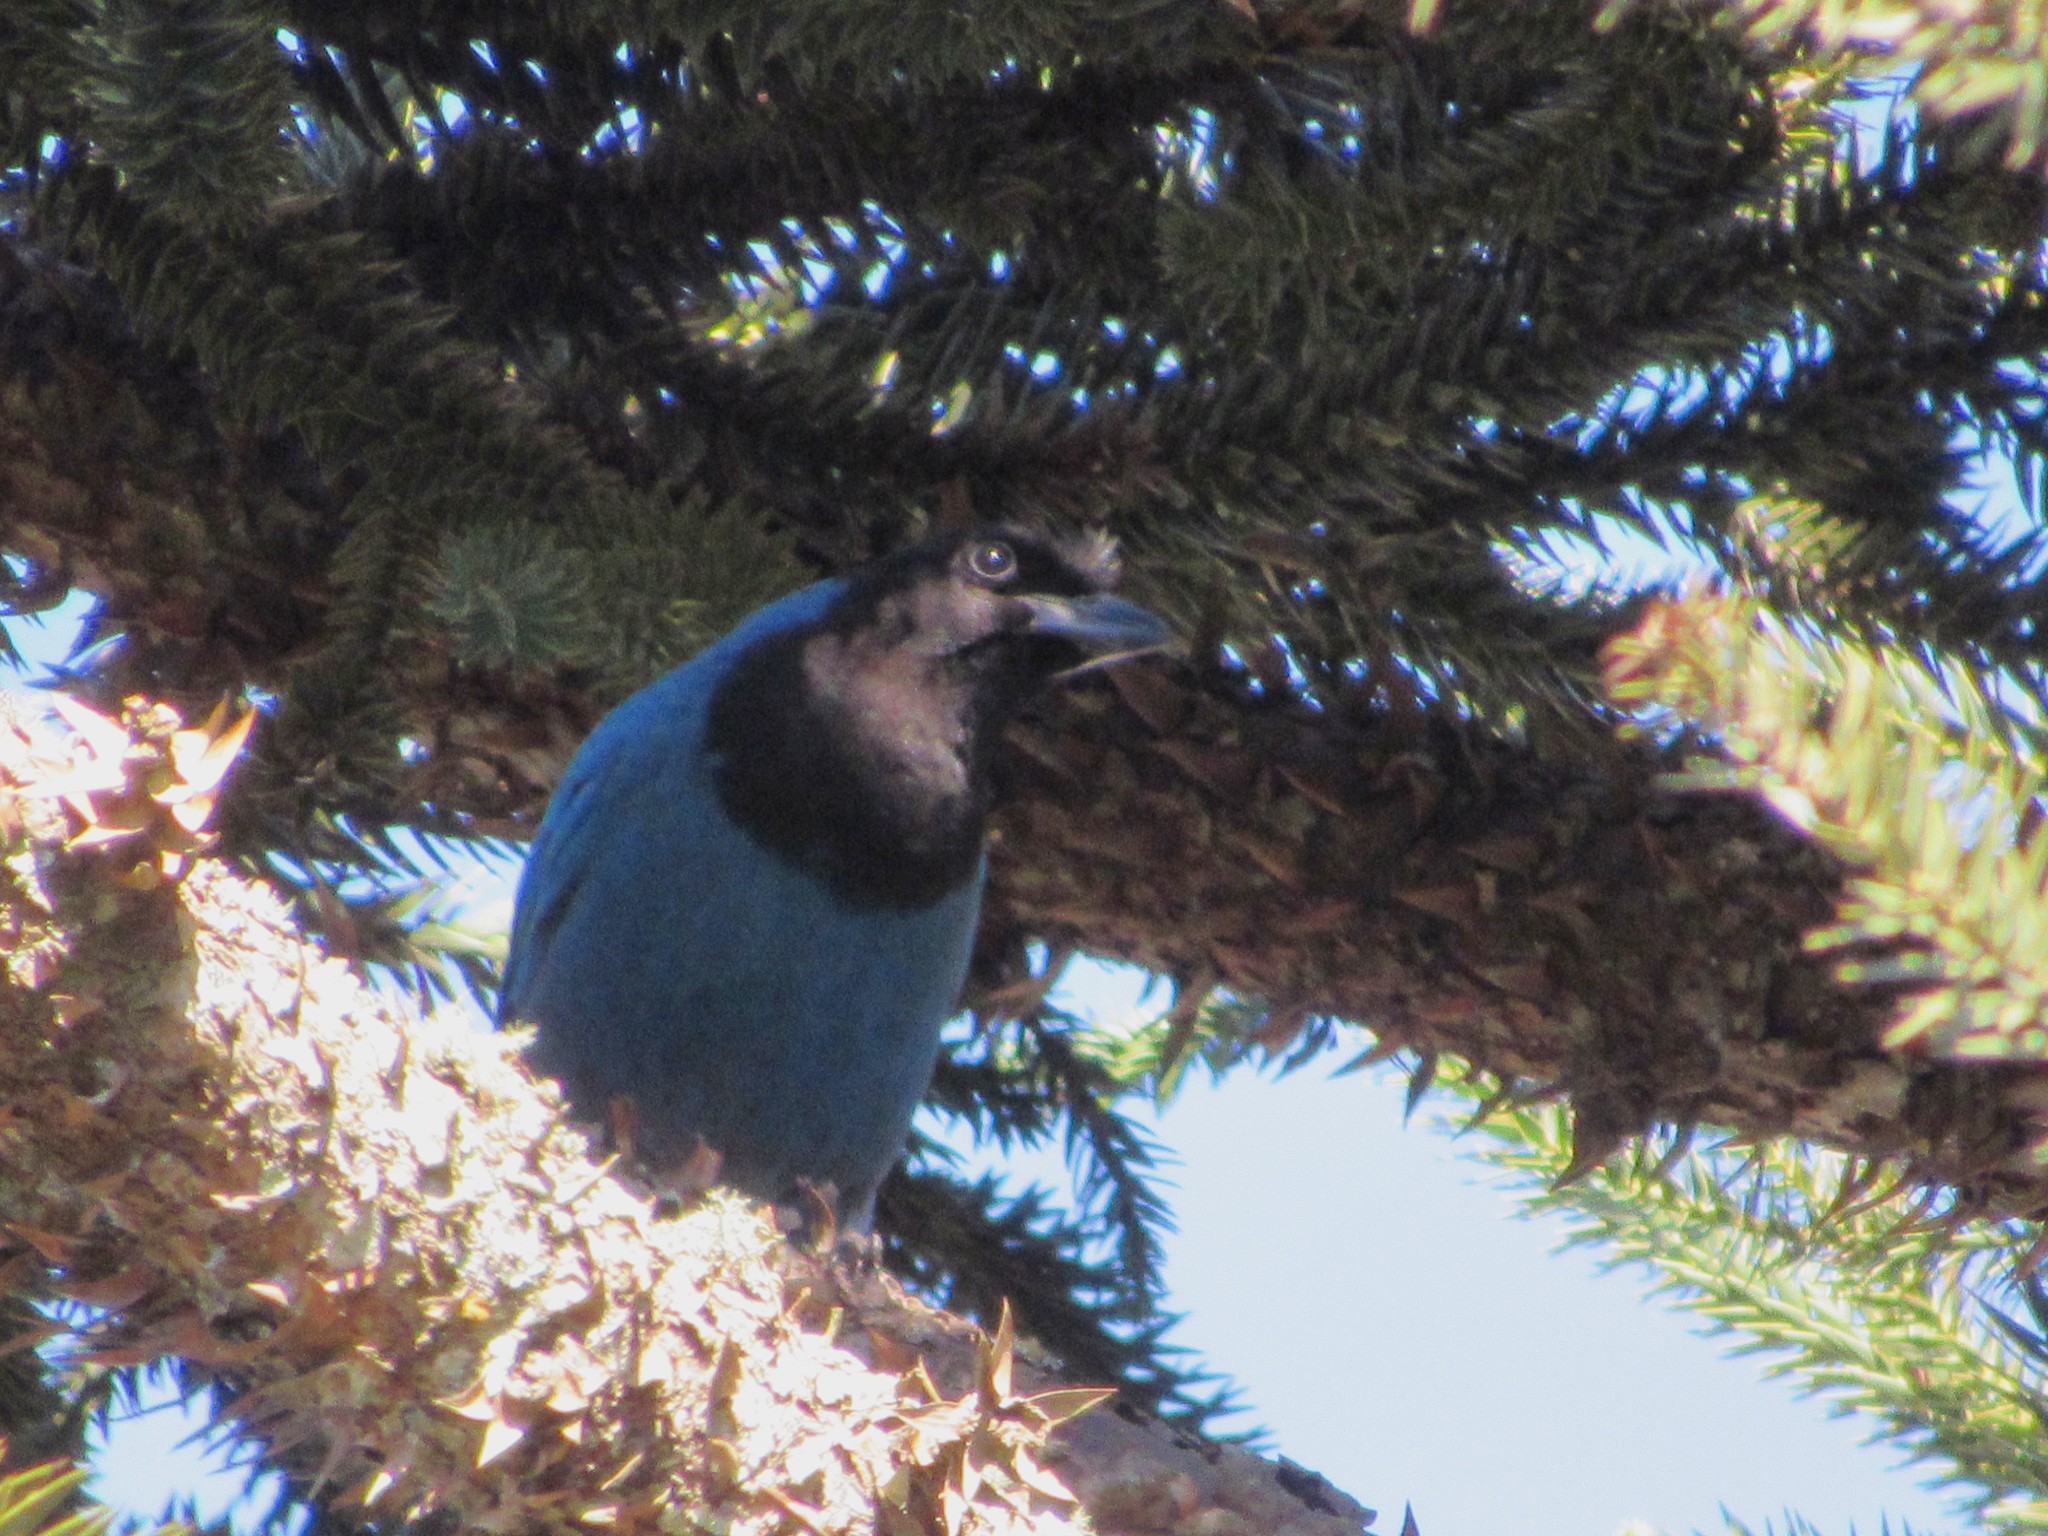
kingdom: Animalia
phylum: Chordata
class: Aves
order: Passeriformes
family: Corvidae
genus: Cyanocorax
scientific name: Cyanocorax caeruleus
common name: Azure jay
